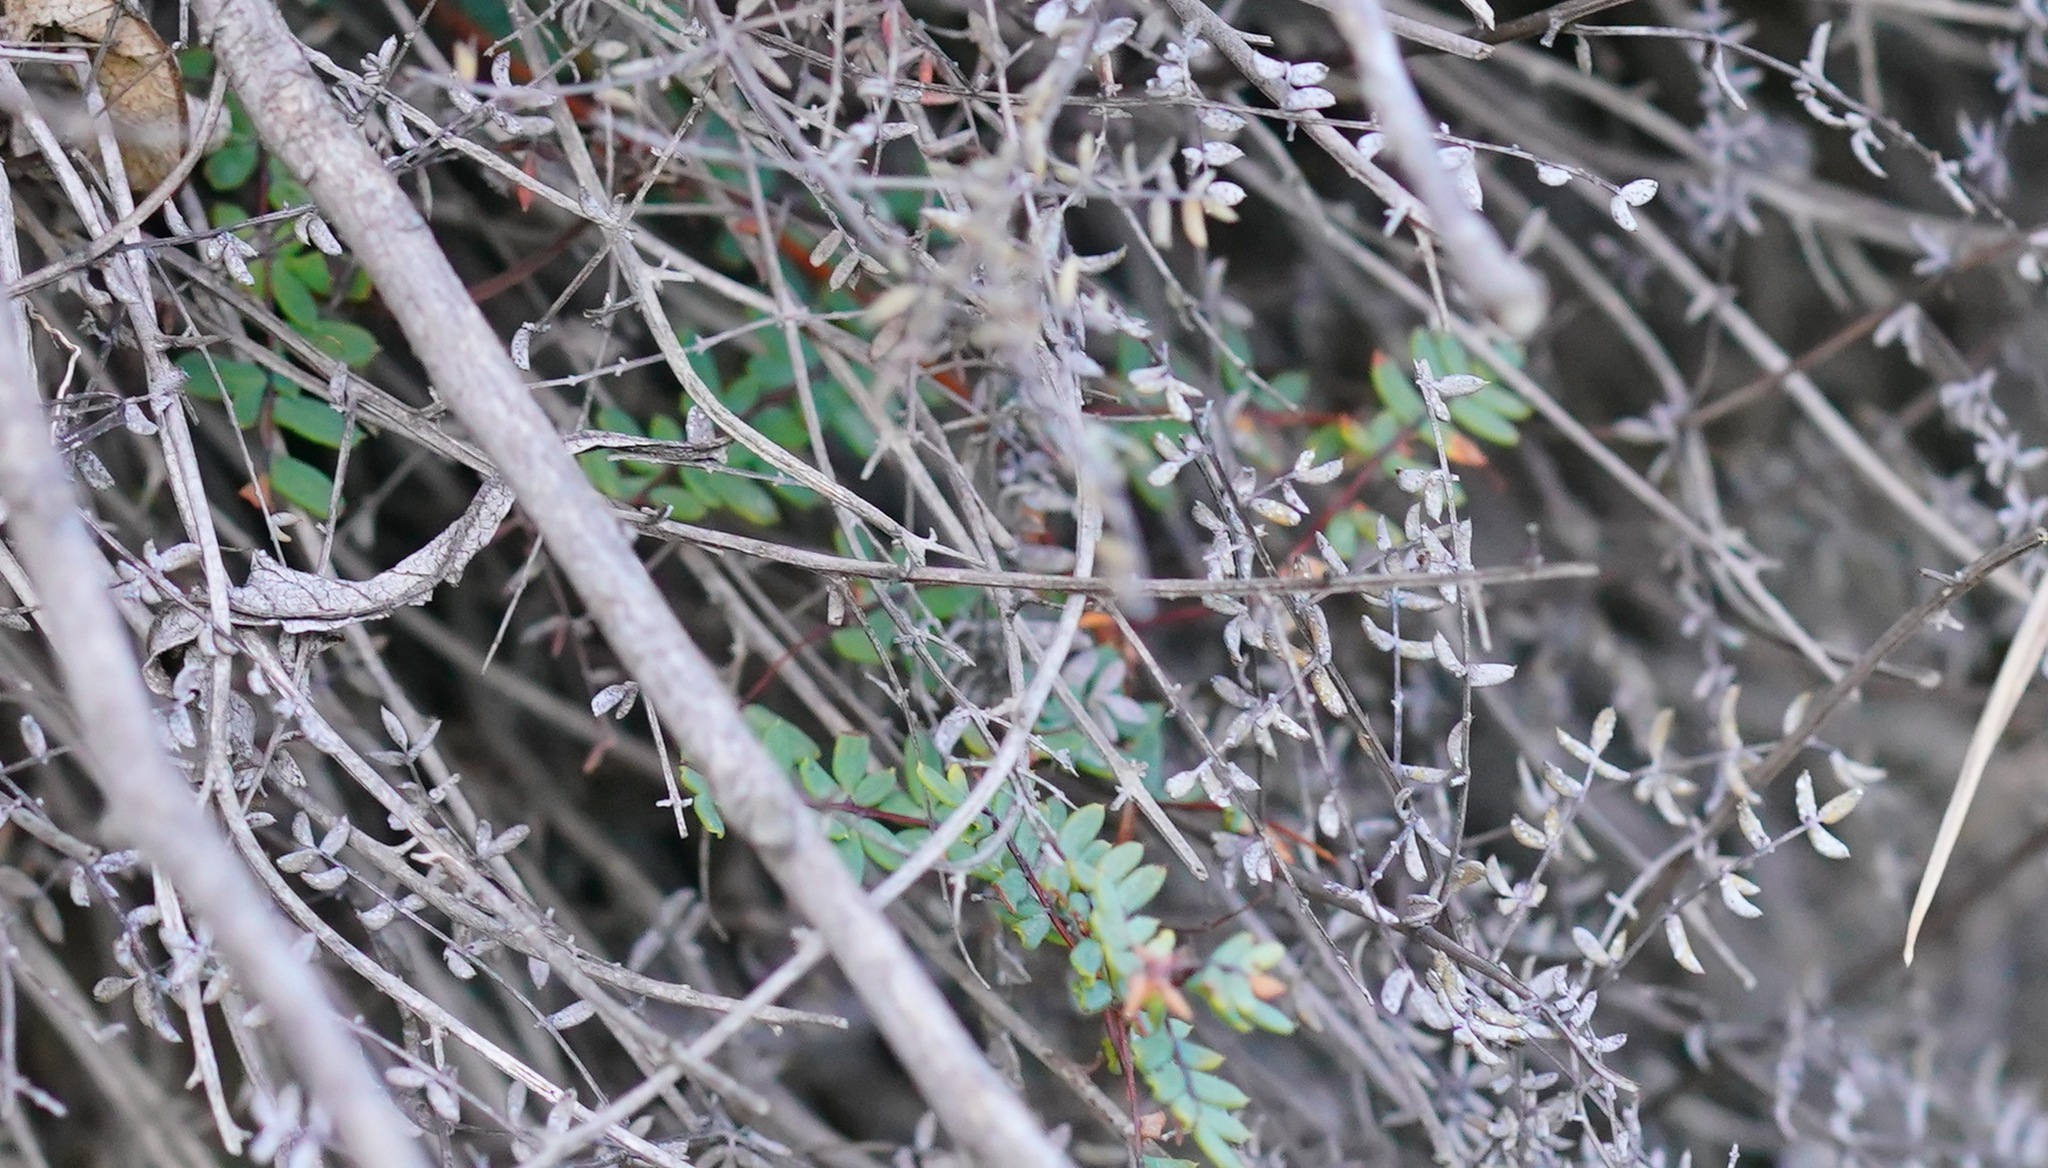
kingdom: Plantae
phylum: Tracheophyta
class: Polypodiopsida
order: Polypodiales
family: Pteridaceae
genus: Pellaea
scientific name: Pellaea mucronata
